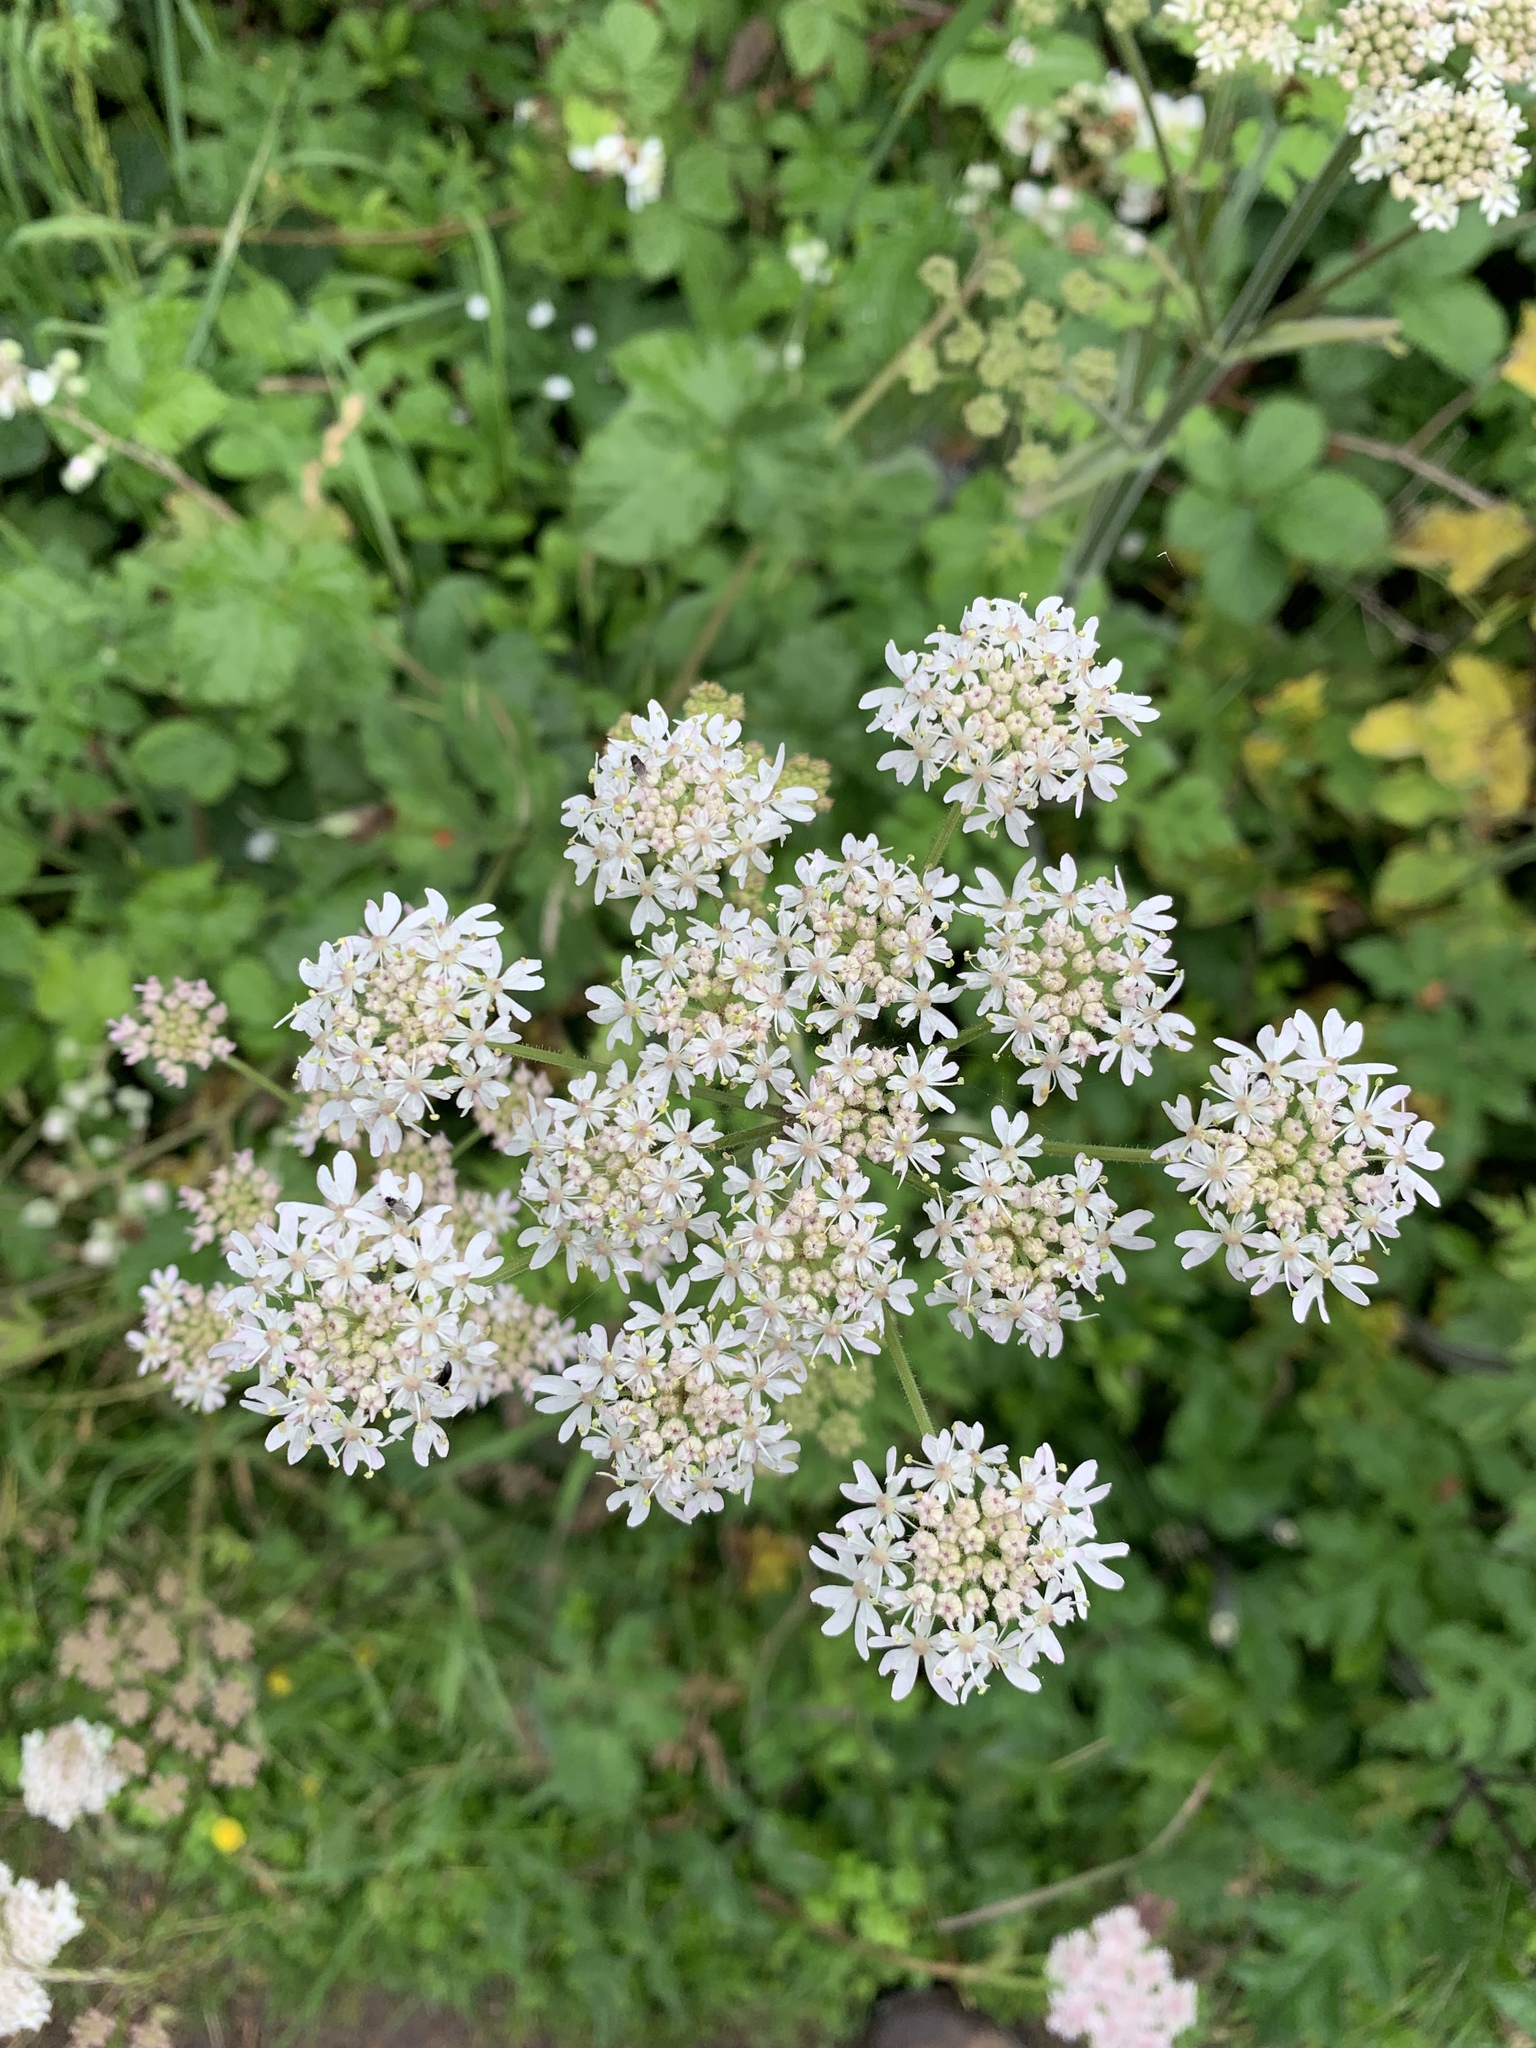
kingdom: Plantae
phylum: Tracheophyta
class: Magnoliopsida
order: Apiales
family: Apiaceae
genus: Heracleum
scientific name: Heracleum sphondylium
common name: Hogweed
